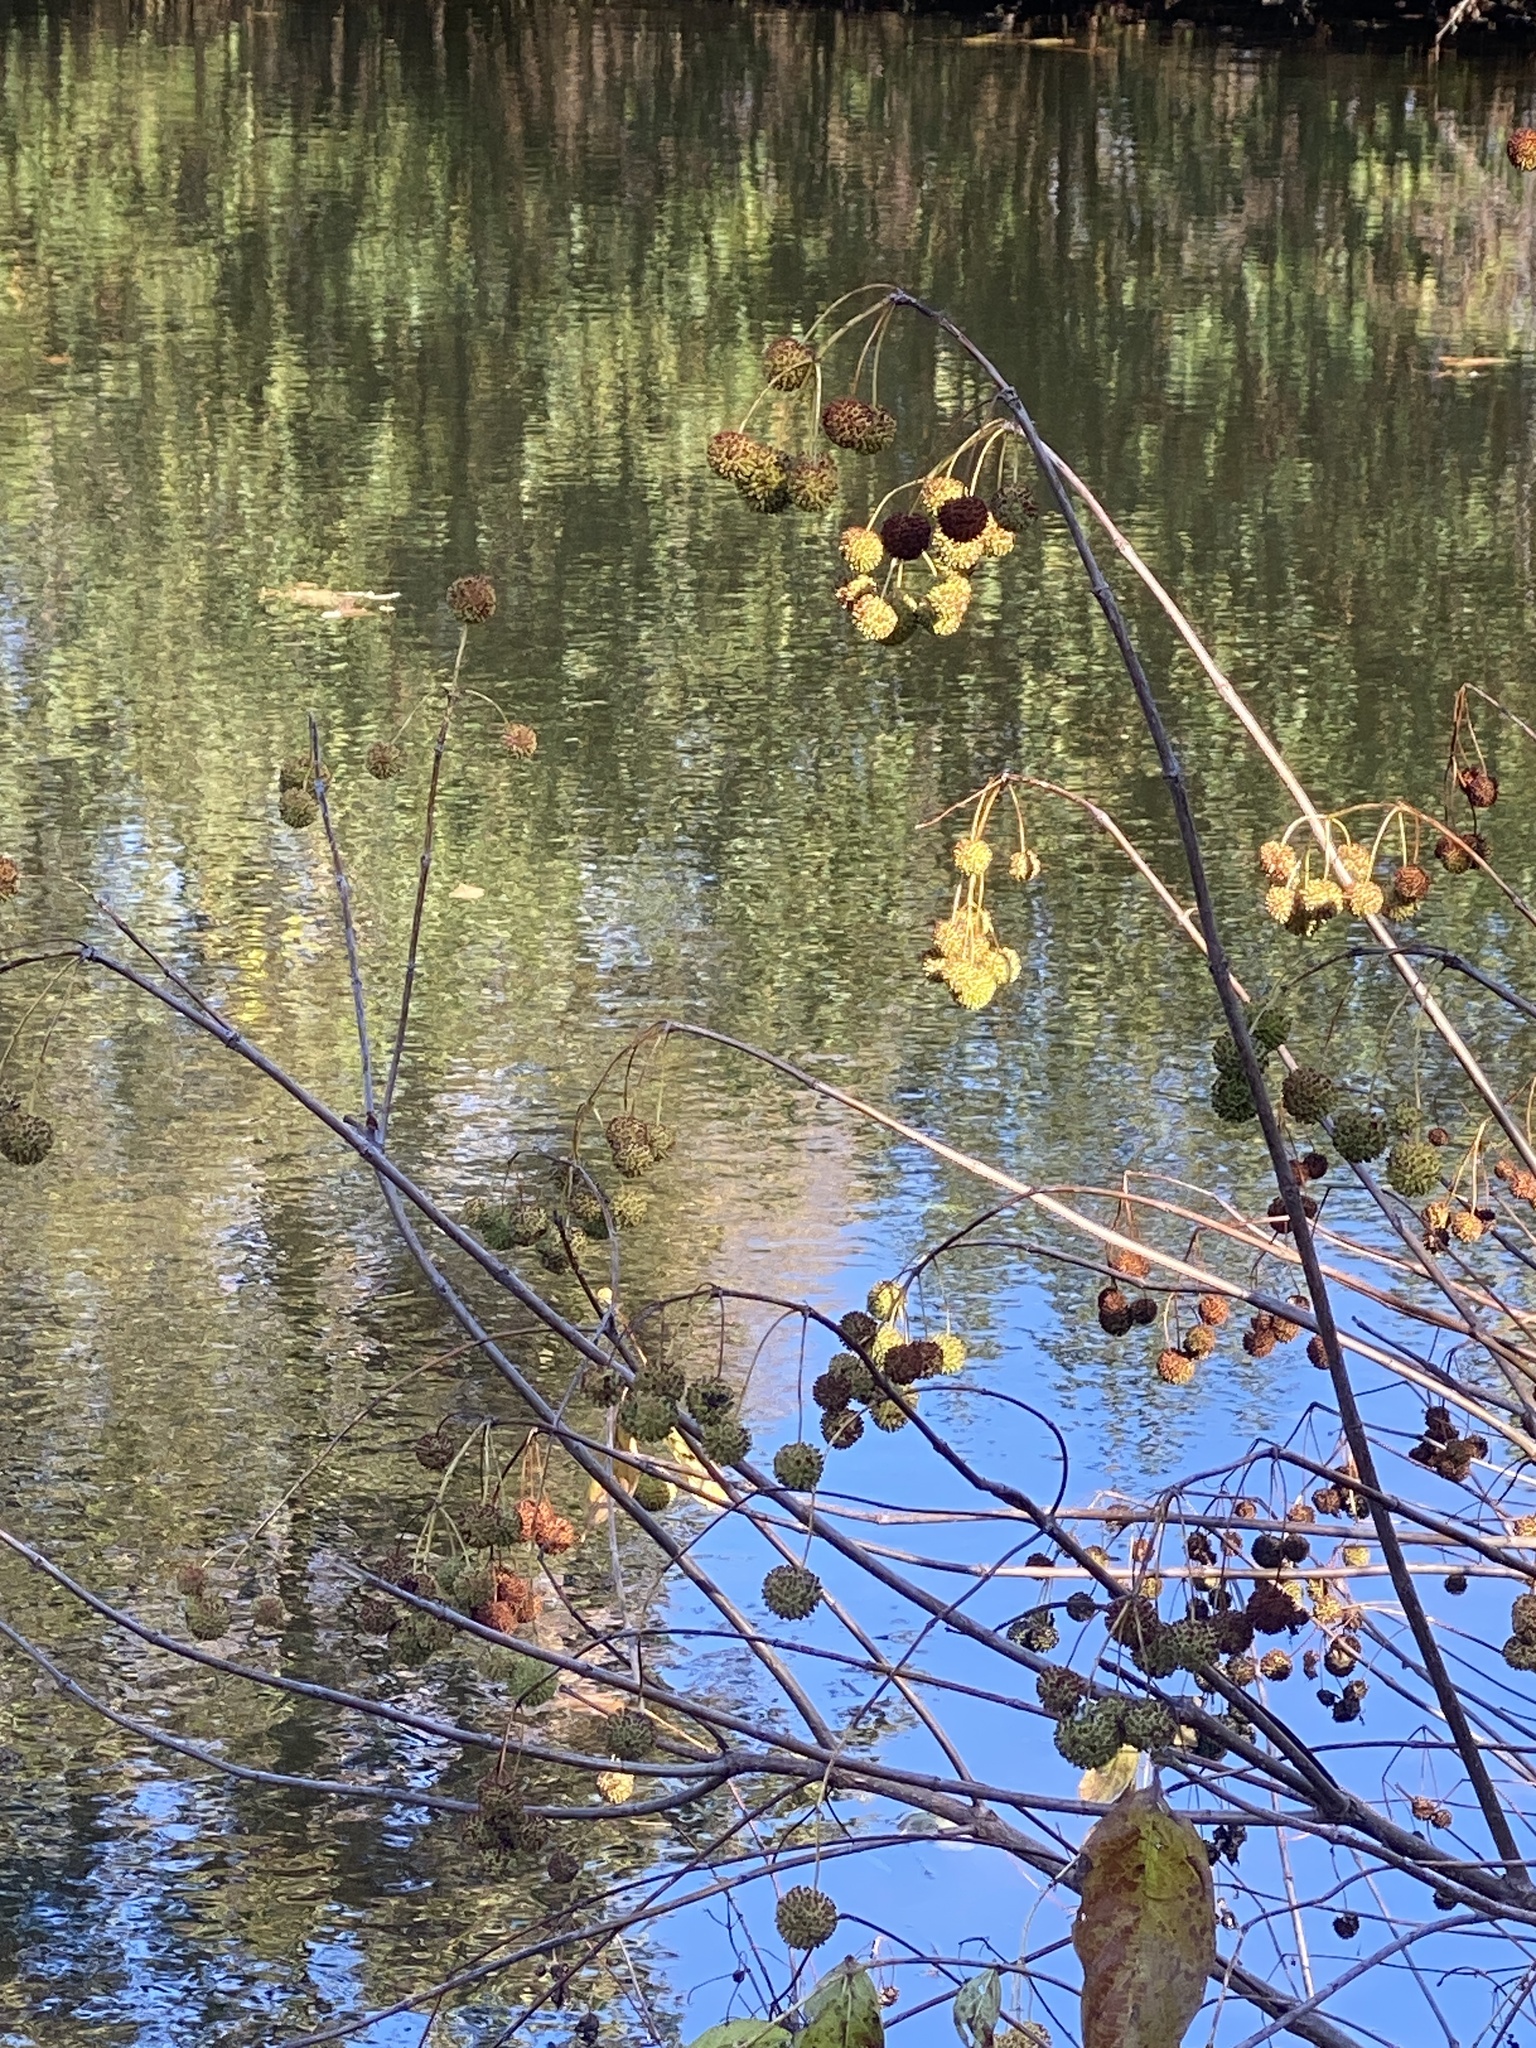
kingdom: Plantae
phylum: Tracheophyta
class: Magnoliopsida
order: Gentianales
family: Rubiaceae
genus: Cephalanthus
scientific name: Cephalanthus occidentalis
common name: Button-willow
